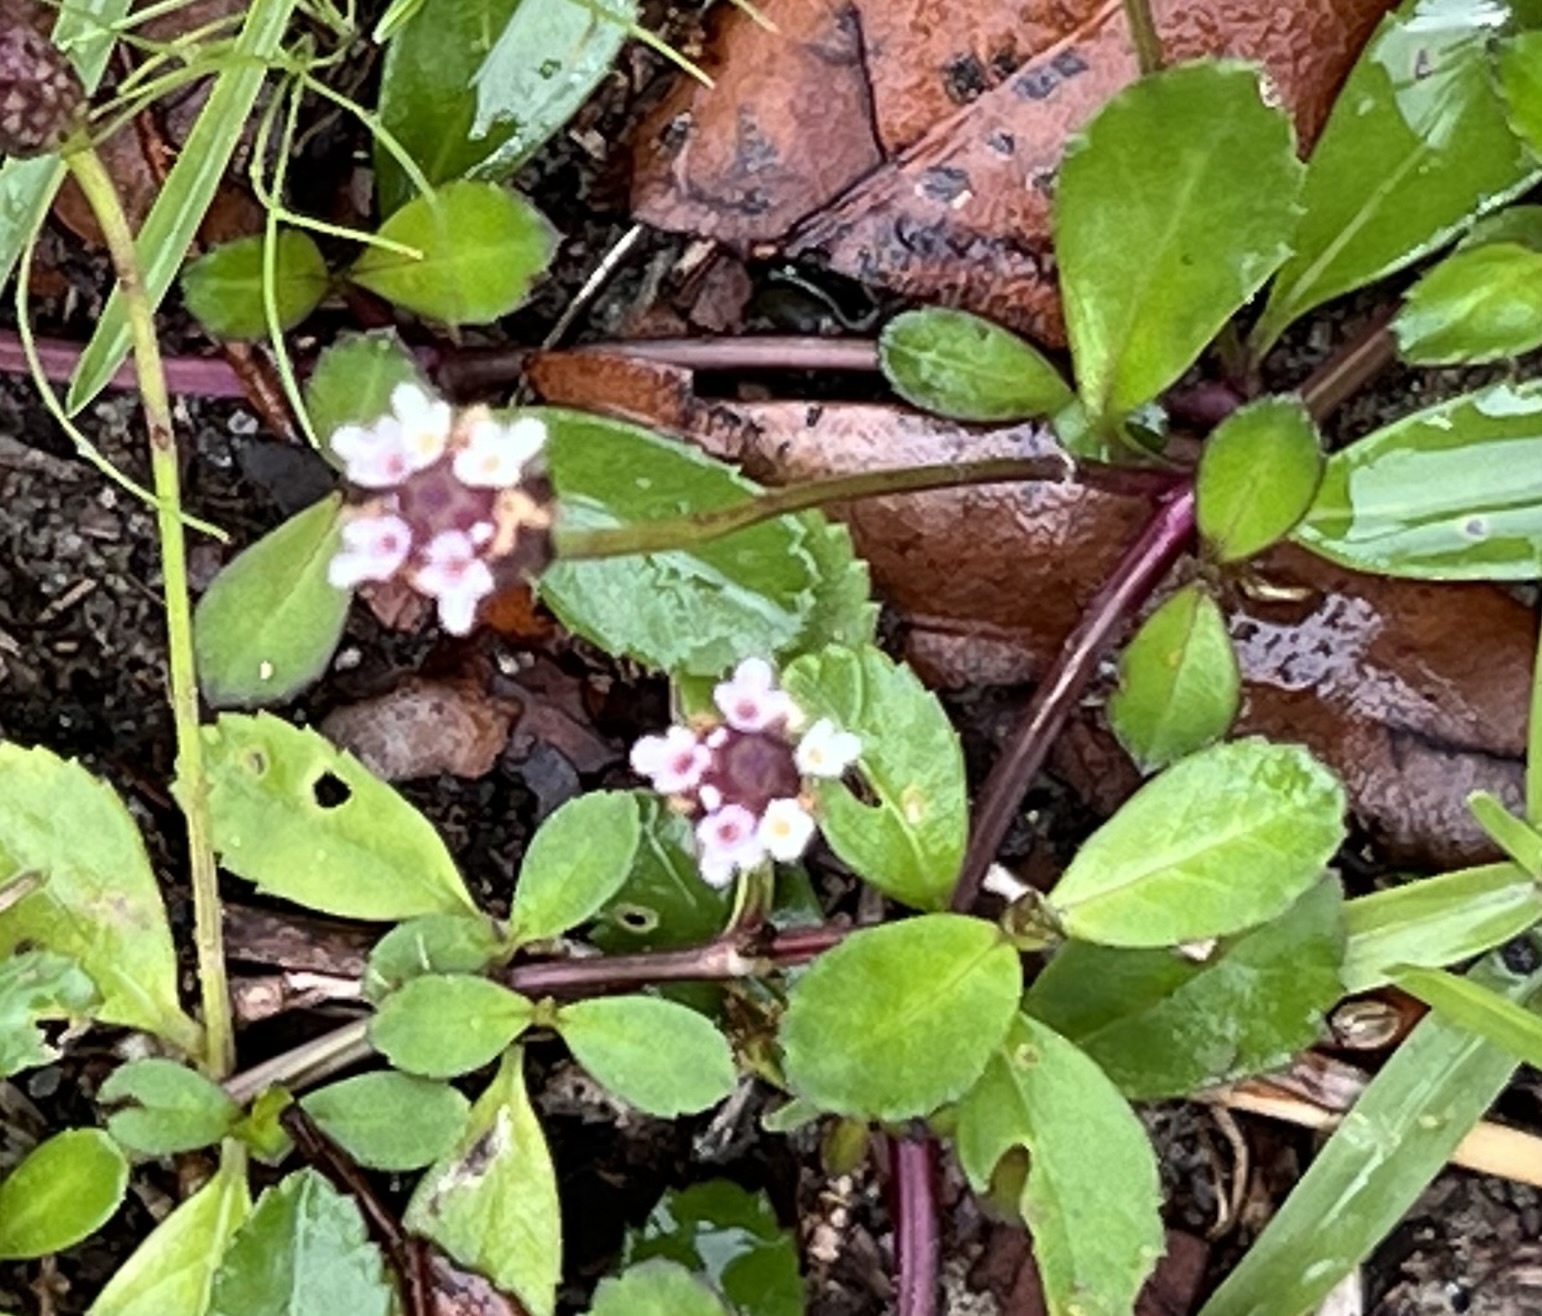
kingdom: Plantae
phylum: Tracheophyta
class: Magnoliopsida
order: Lamiales
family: Verbenaceae
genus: Phyla
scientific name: Phyla nodiflora
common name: Frogfruit
